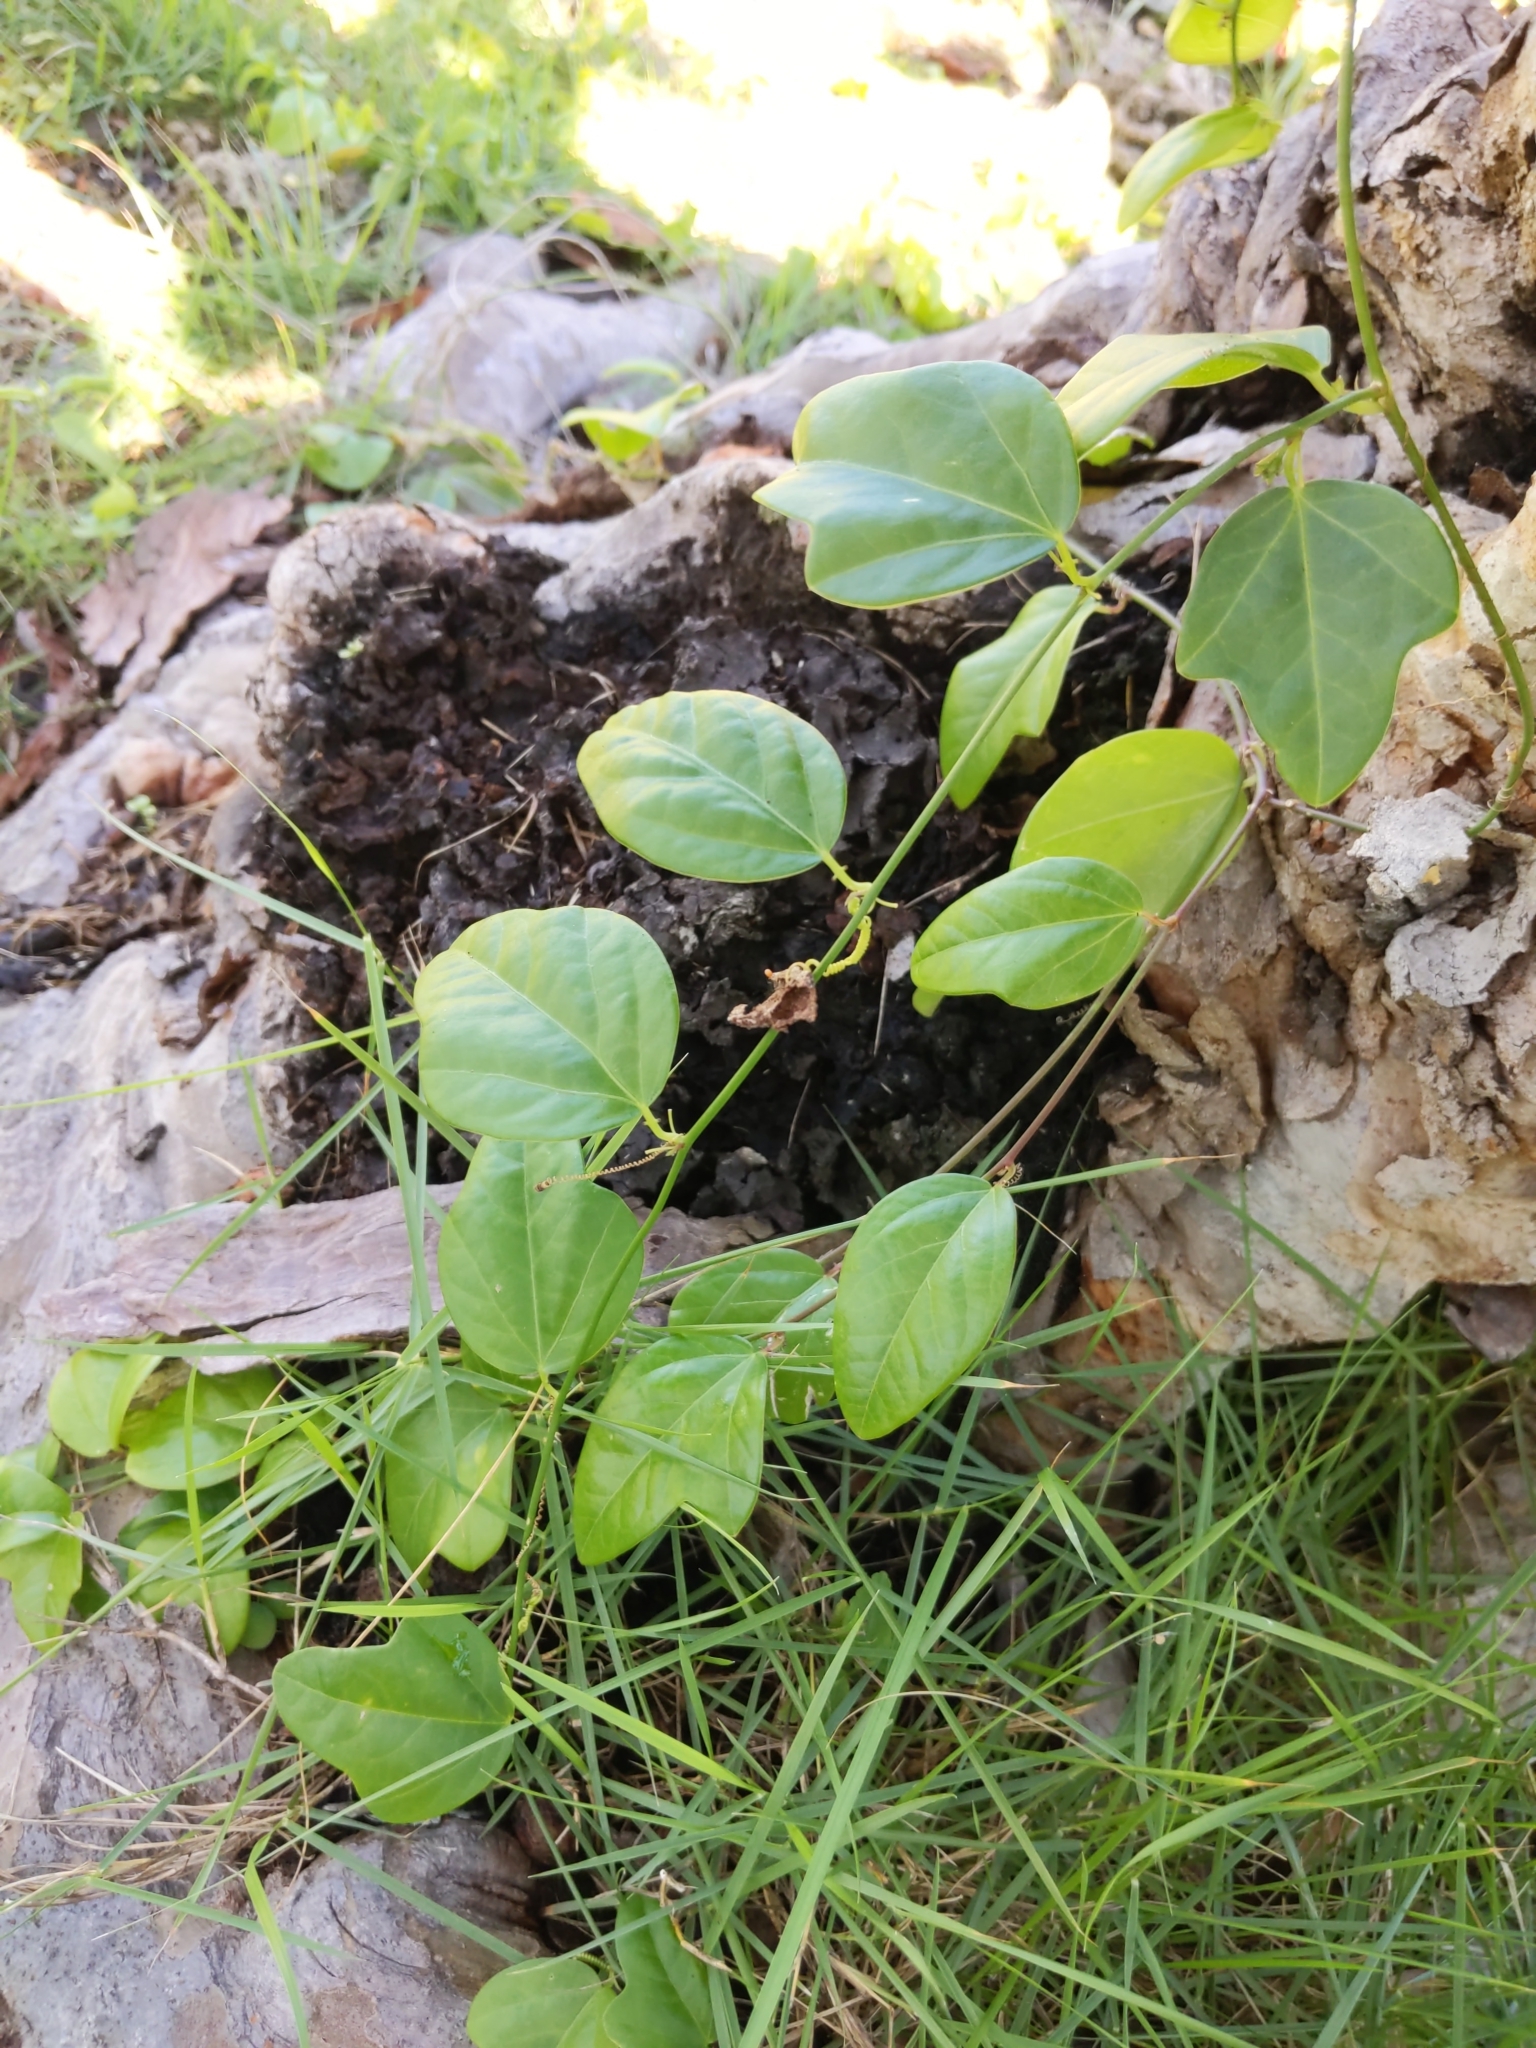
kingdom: Plantae
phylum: Tracheophyta
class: Magnoliopsida
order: Malpighiales
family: Passifloraceae
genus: Passiflora
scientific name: Passiflora pallida
